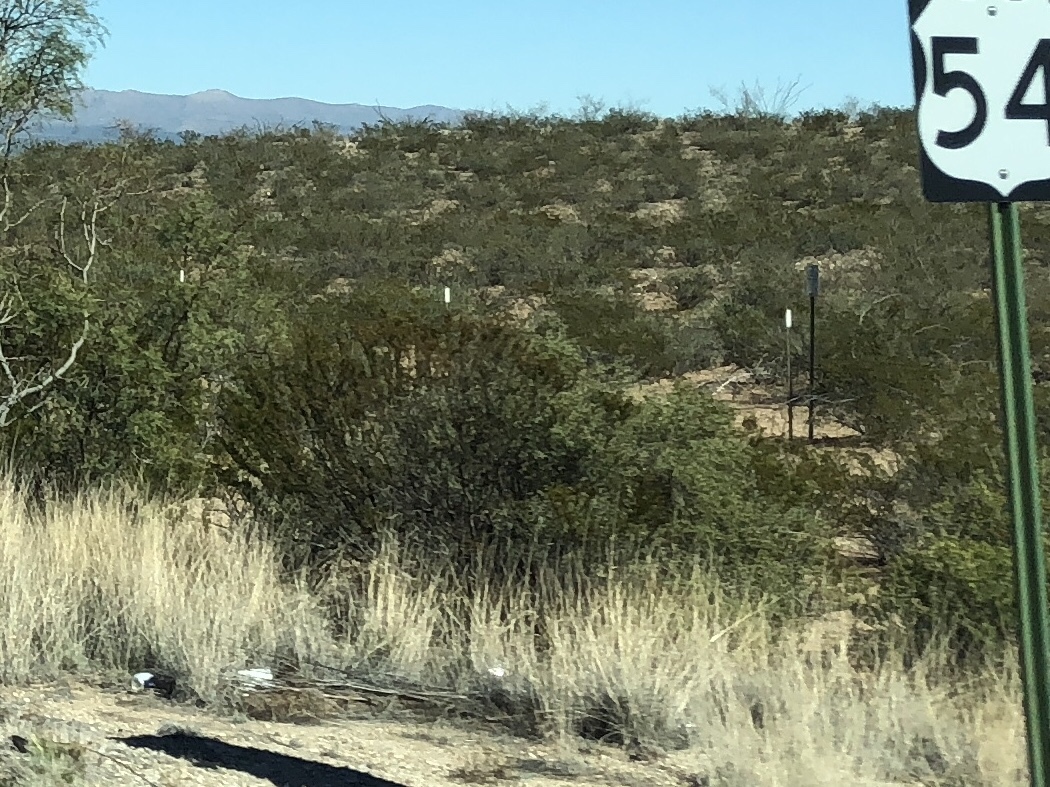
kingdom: Plantae
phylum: Tracheophyta
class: Magnoliopsida
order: Zygophyllales
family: Zygophyllaceae
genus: Larrea
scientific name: Larrea tridentata
